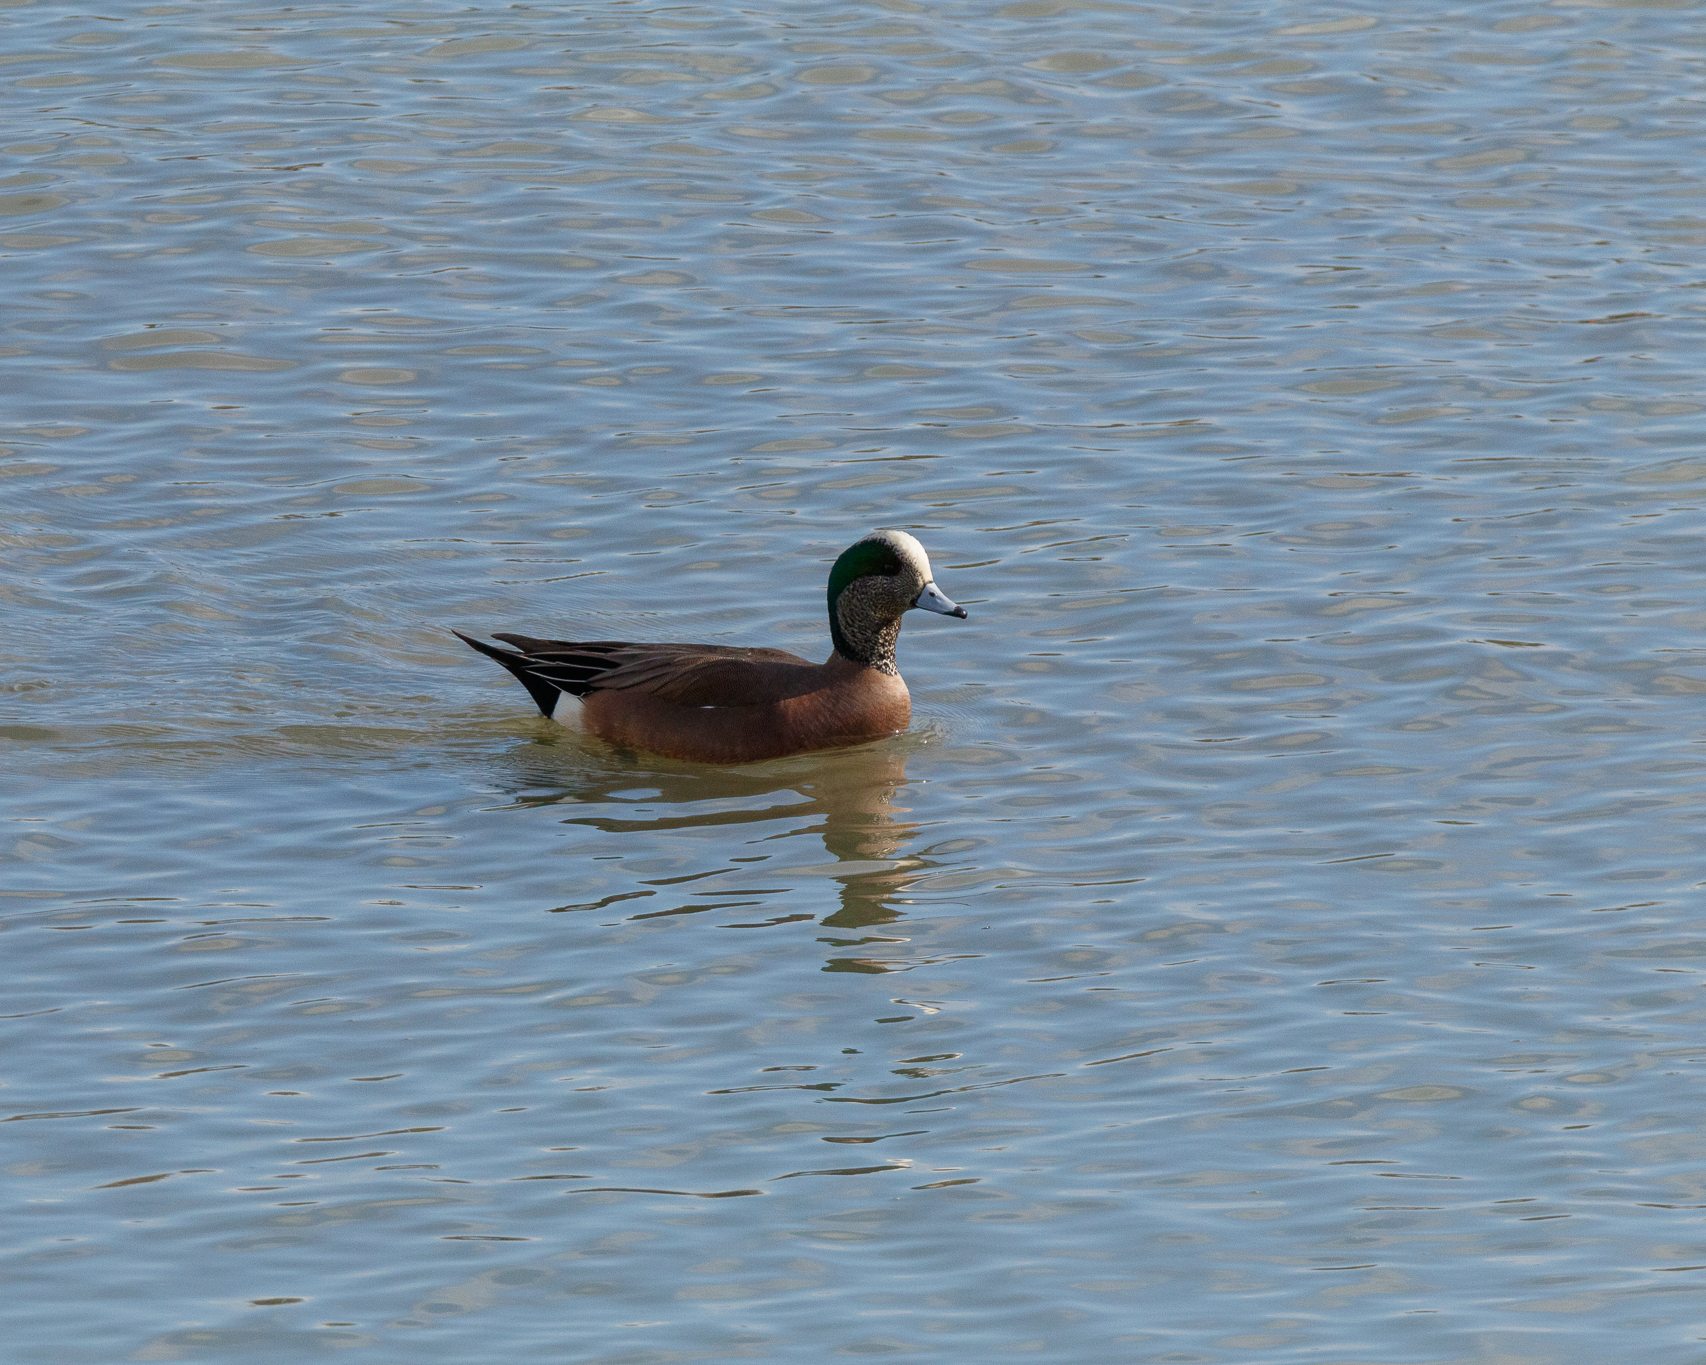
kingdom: Animalia
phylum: Chordata
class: Aves
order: Anseriformes
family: Anatidae
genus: Mareca
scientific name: Mareca americana
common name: American wigeon
